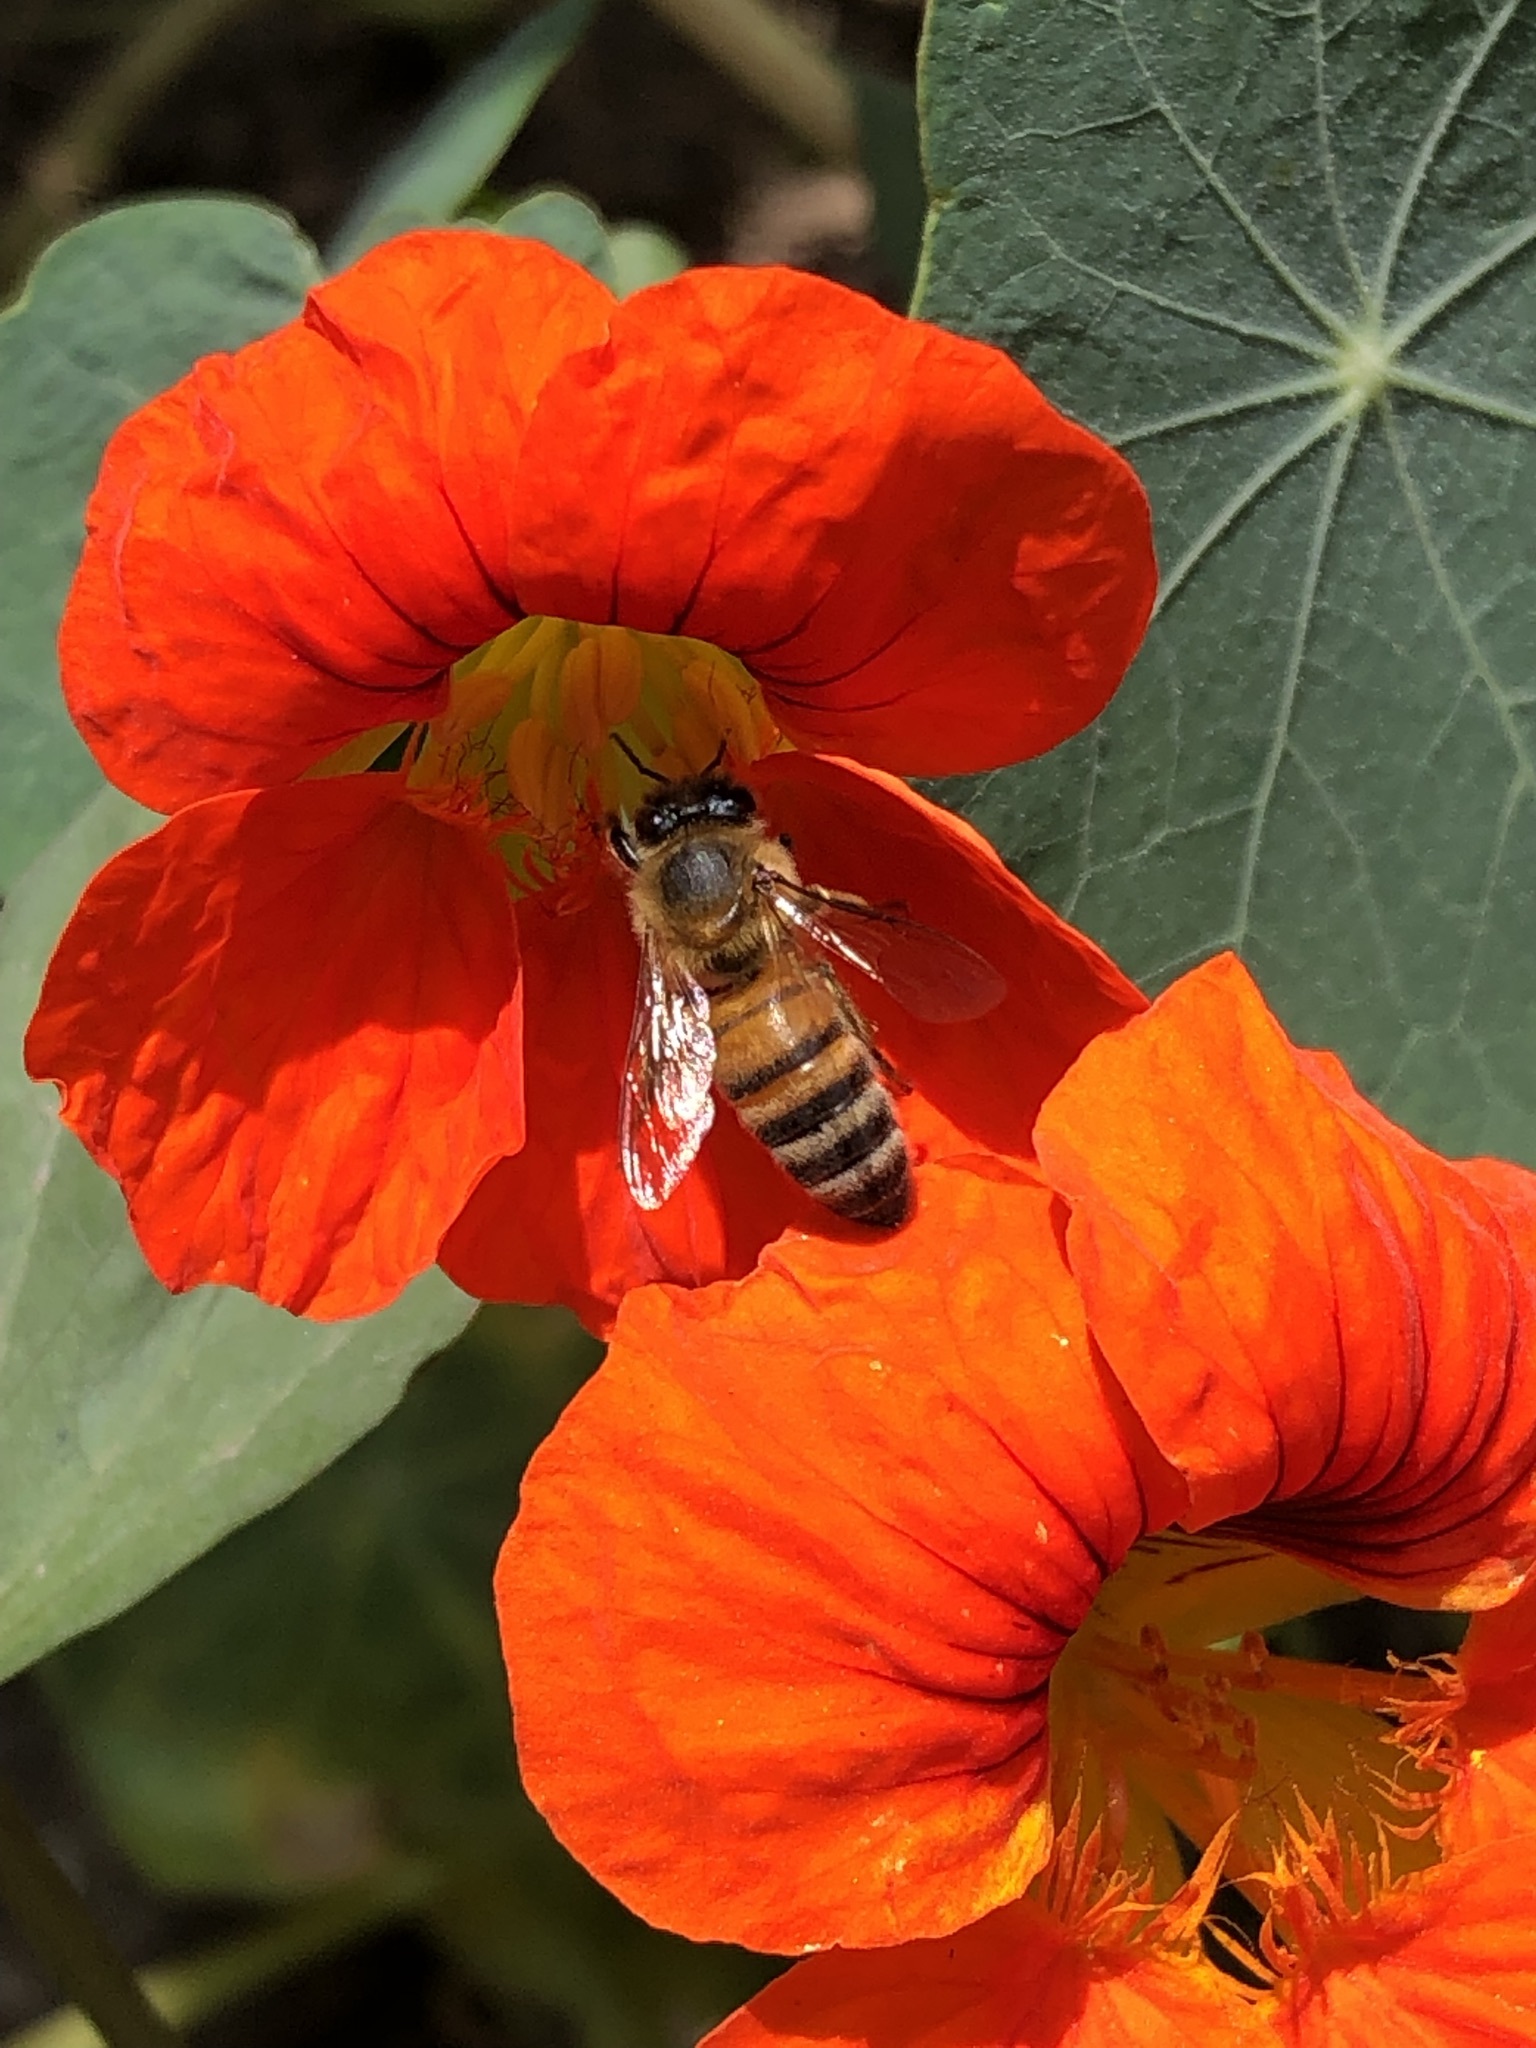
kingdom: Animalia
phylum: Arthropoda
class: Insecta
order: Hymenoptera
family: Apidae
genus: Apis
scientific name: Apis mellifera
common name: Honey bee
